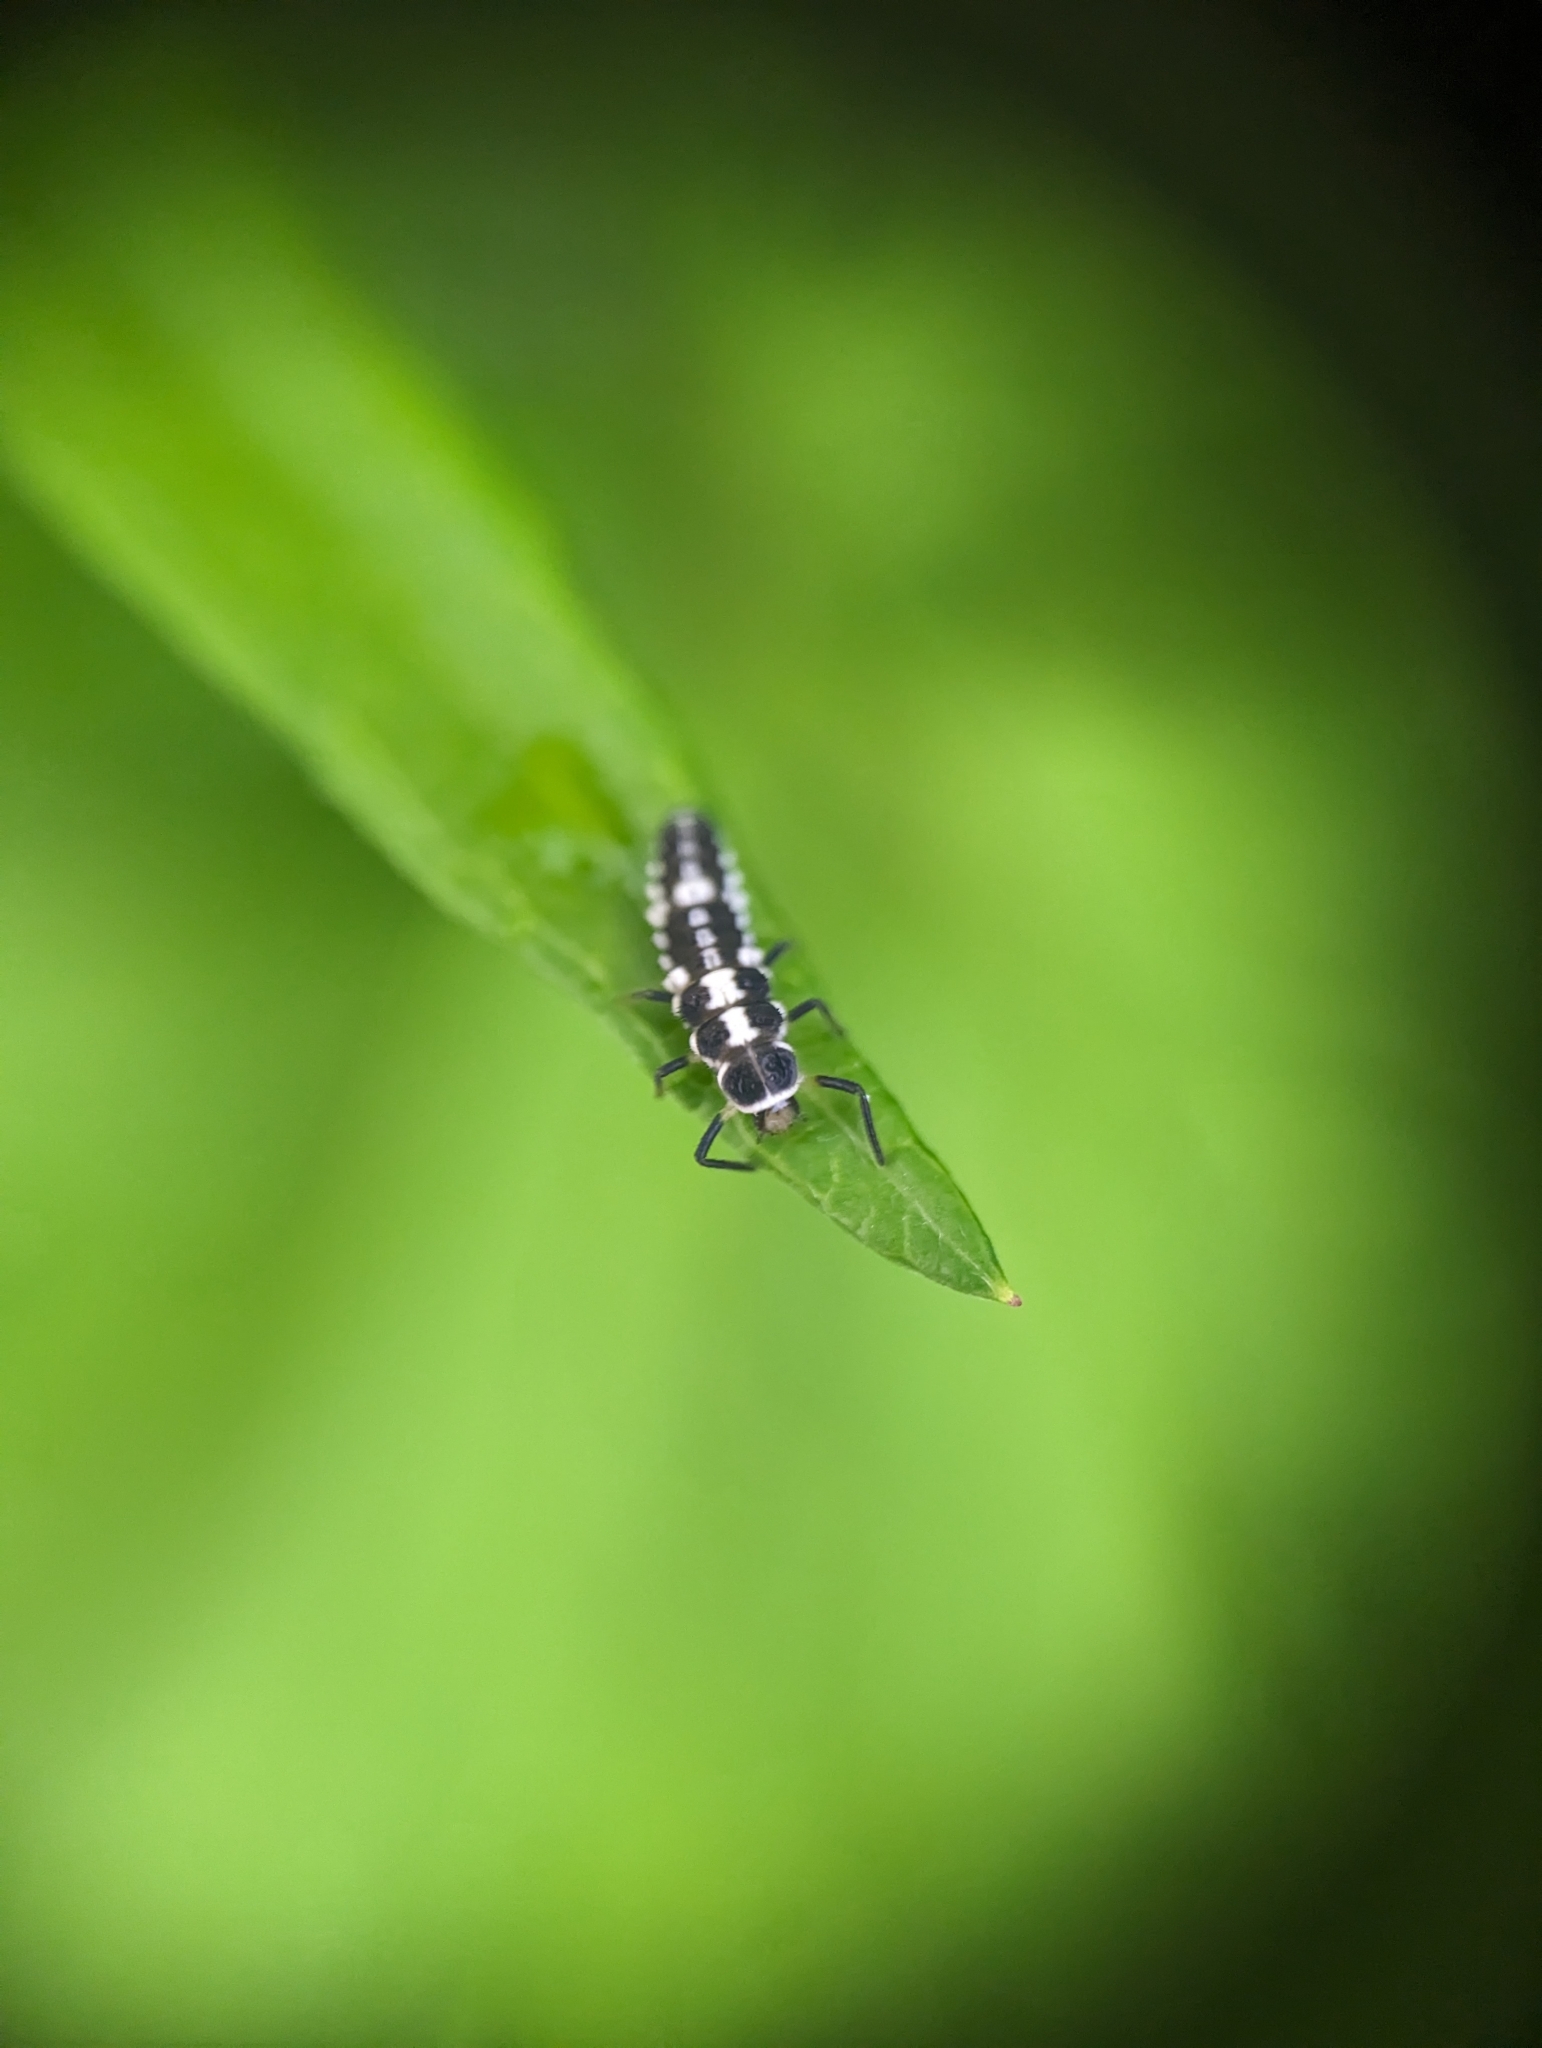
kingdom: Animalia
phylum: Arthropoda
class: Insecta
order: Coleoptera
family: Coccinellidae
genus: Propylaea
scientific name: Propylaea quatuordecimpunctata
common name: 14-spotted ladybird beetle
